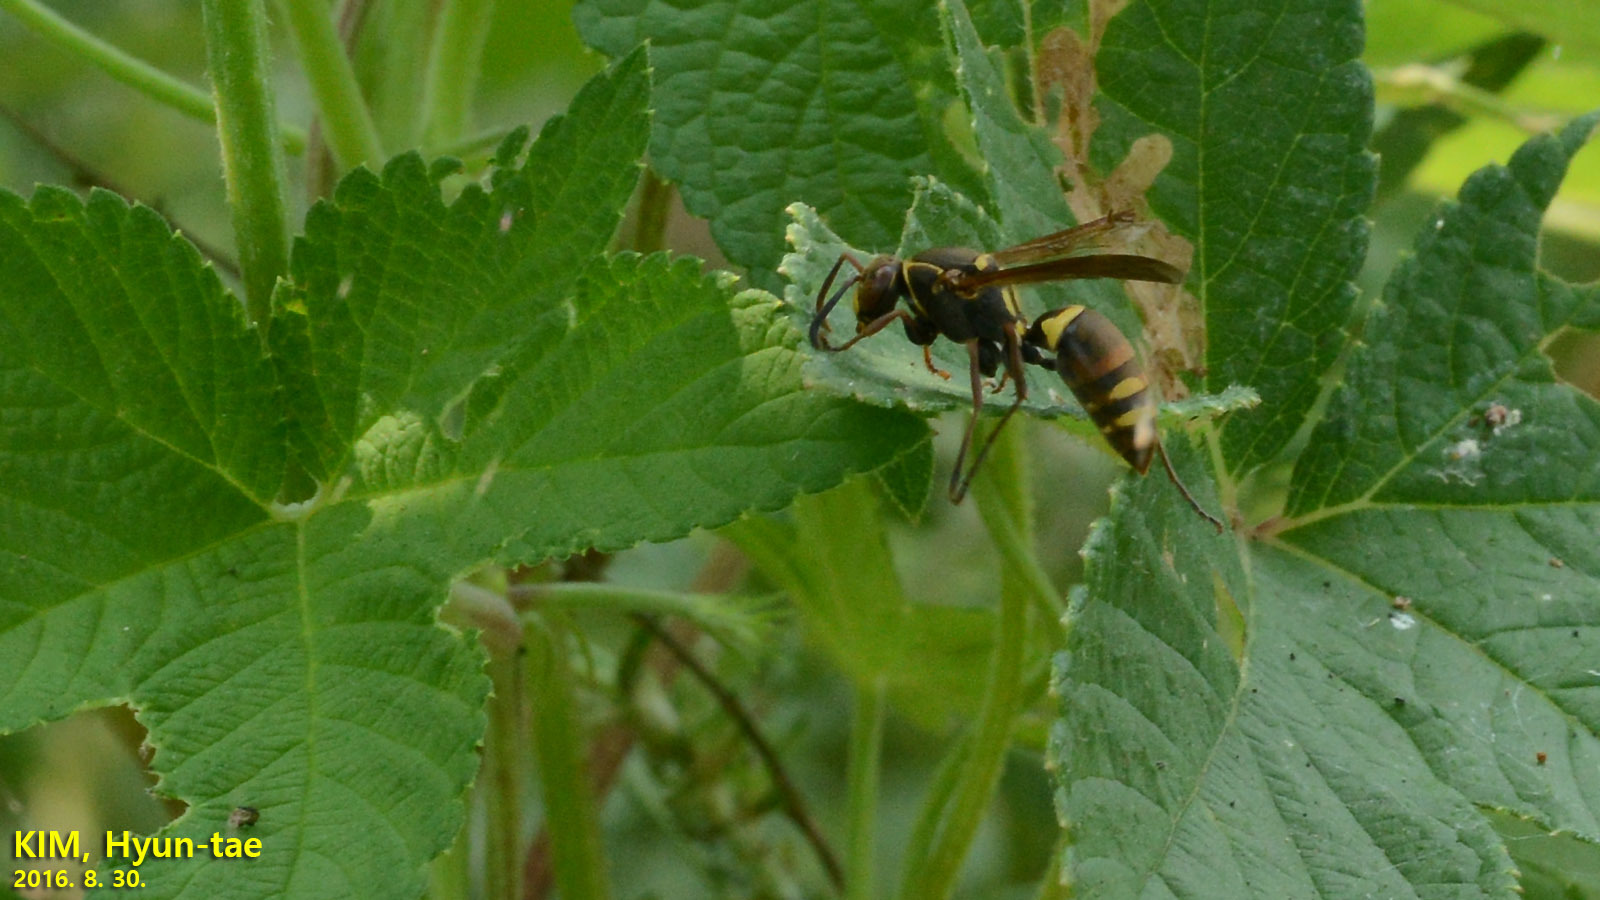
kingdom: Animalia
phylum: Arthropoda
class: Insecta
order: Hymenoptera
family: Eumenidae
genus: Polistes
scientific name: Polistes snelleni
